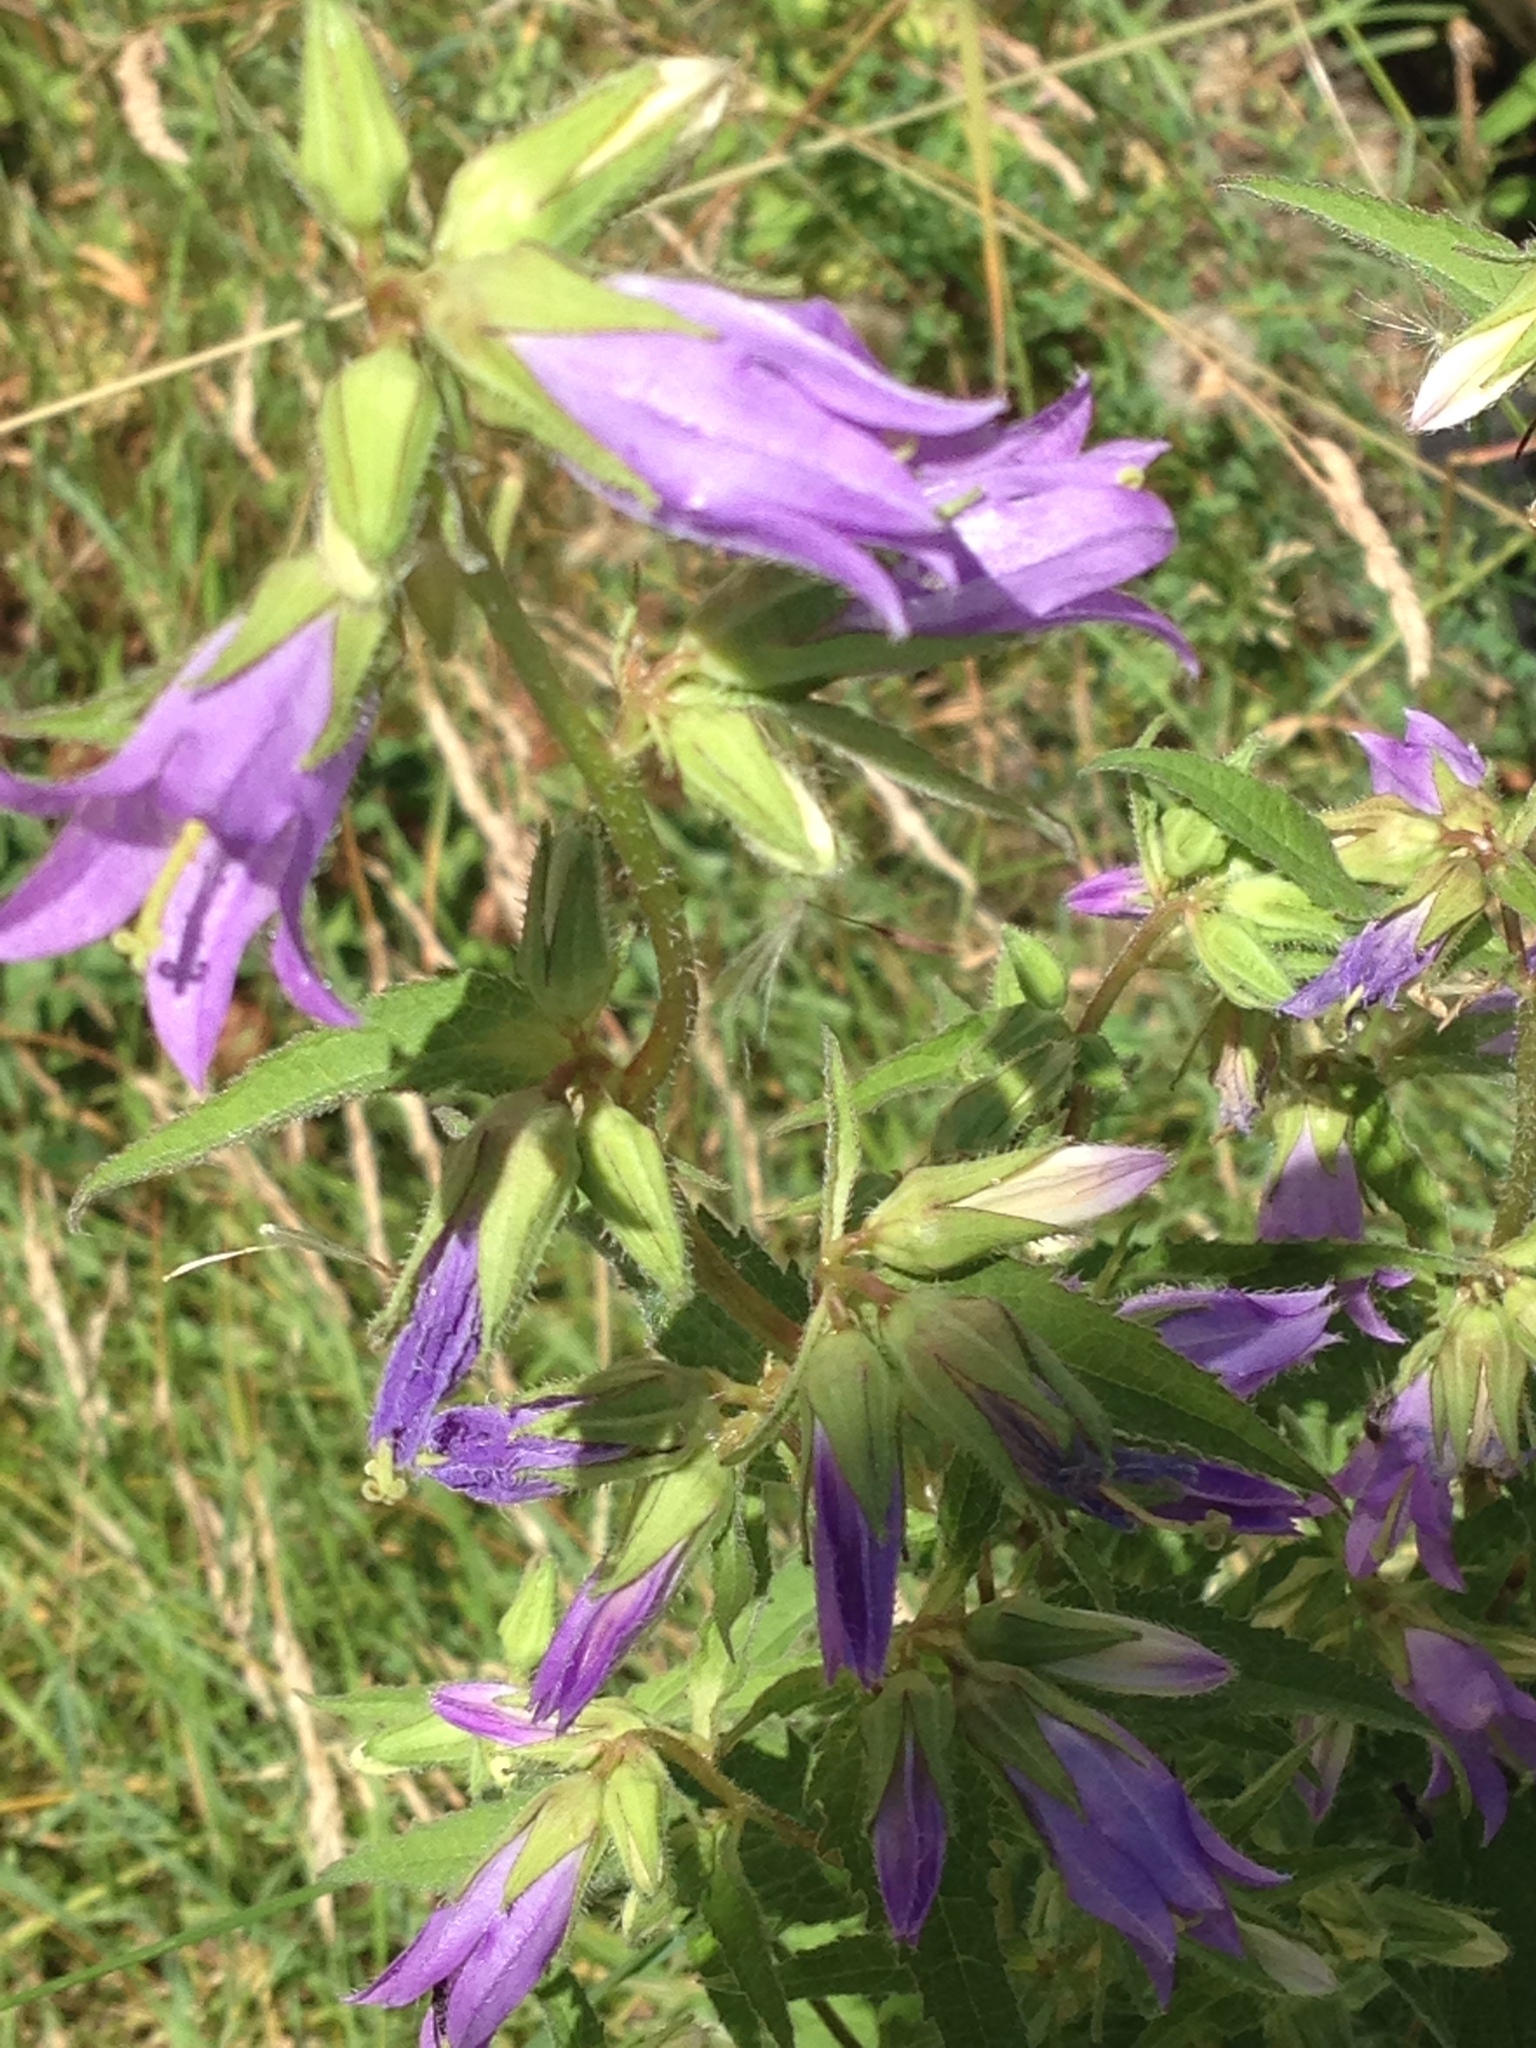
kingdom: Plantae
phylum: Tracheophyta
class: Magnoliopsida
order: Asterales
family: Campanulaceae
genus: Campanula
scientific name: Campanula trachelium
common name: Nettle-leaved bellflower
